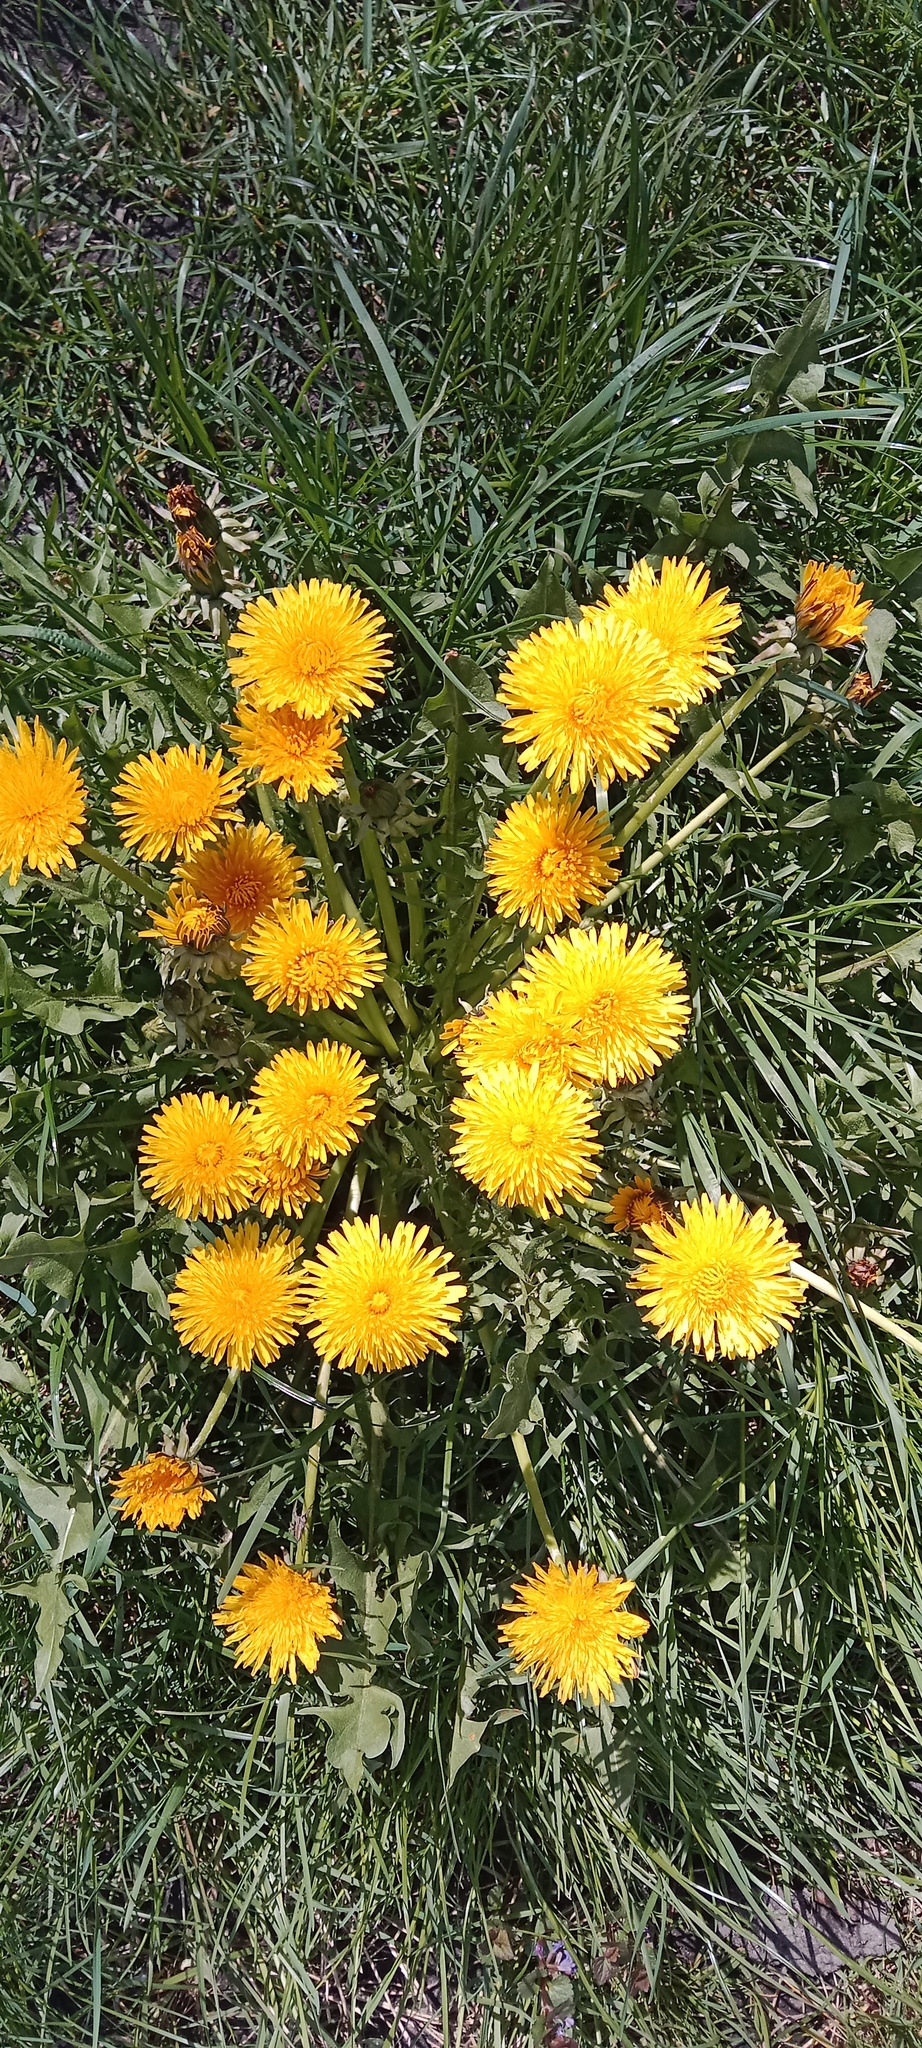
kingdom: Plantae
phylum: Tracheophyta
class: Magnoliopsida
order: Asterales
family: Asteraceae
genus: Taraxacum
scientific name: Taraxacum officinale
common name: Common dandelion
